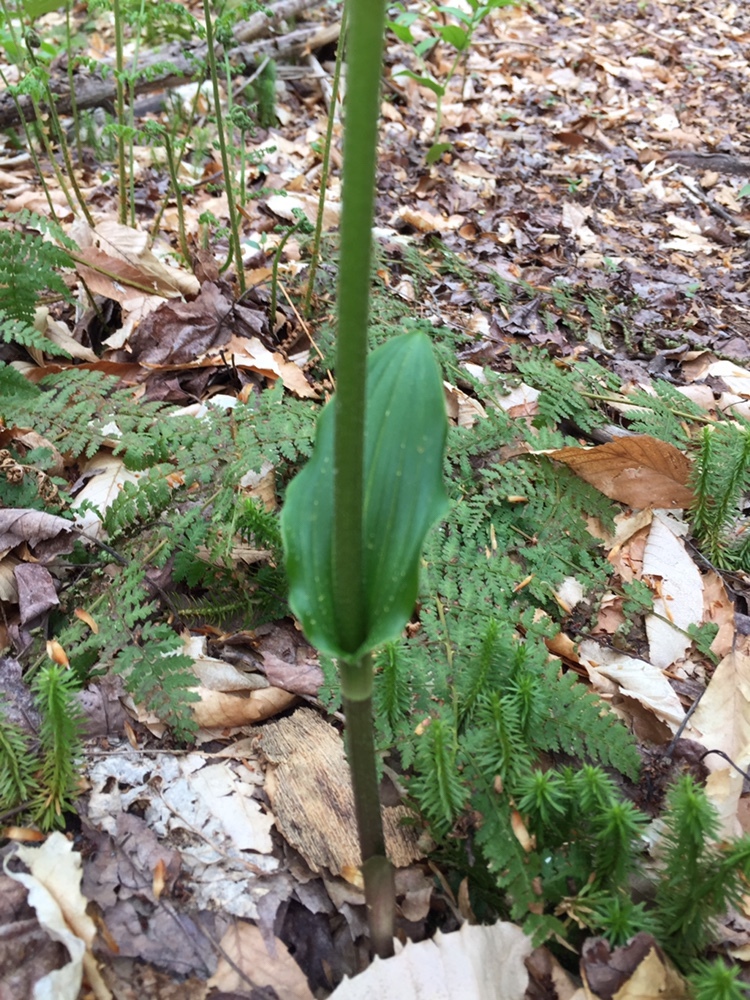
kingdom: Plantae
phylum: Tracheophyta
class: Liliopsida
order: Liliales
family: Liliaceae
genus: Streptopus
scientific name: Streptopus lanceolatus
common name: Rose mandarin
